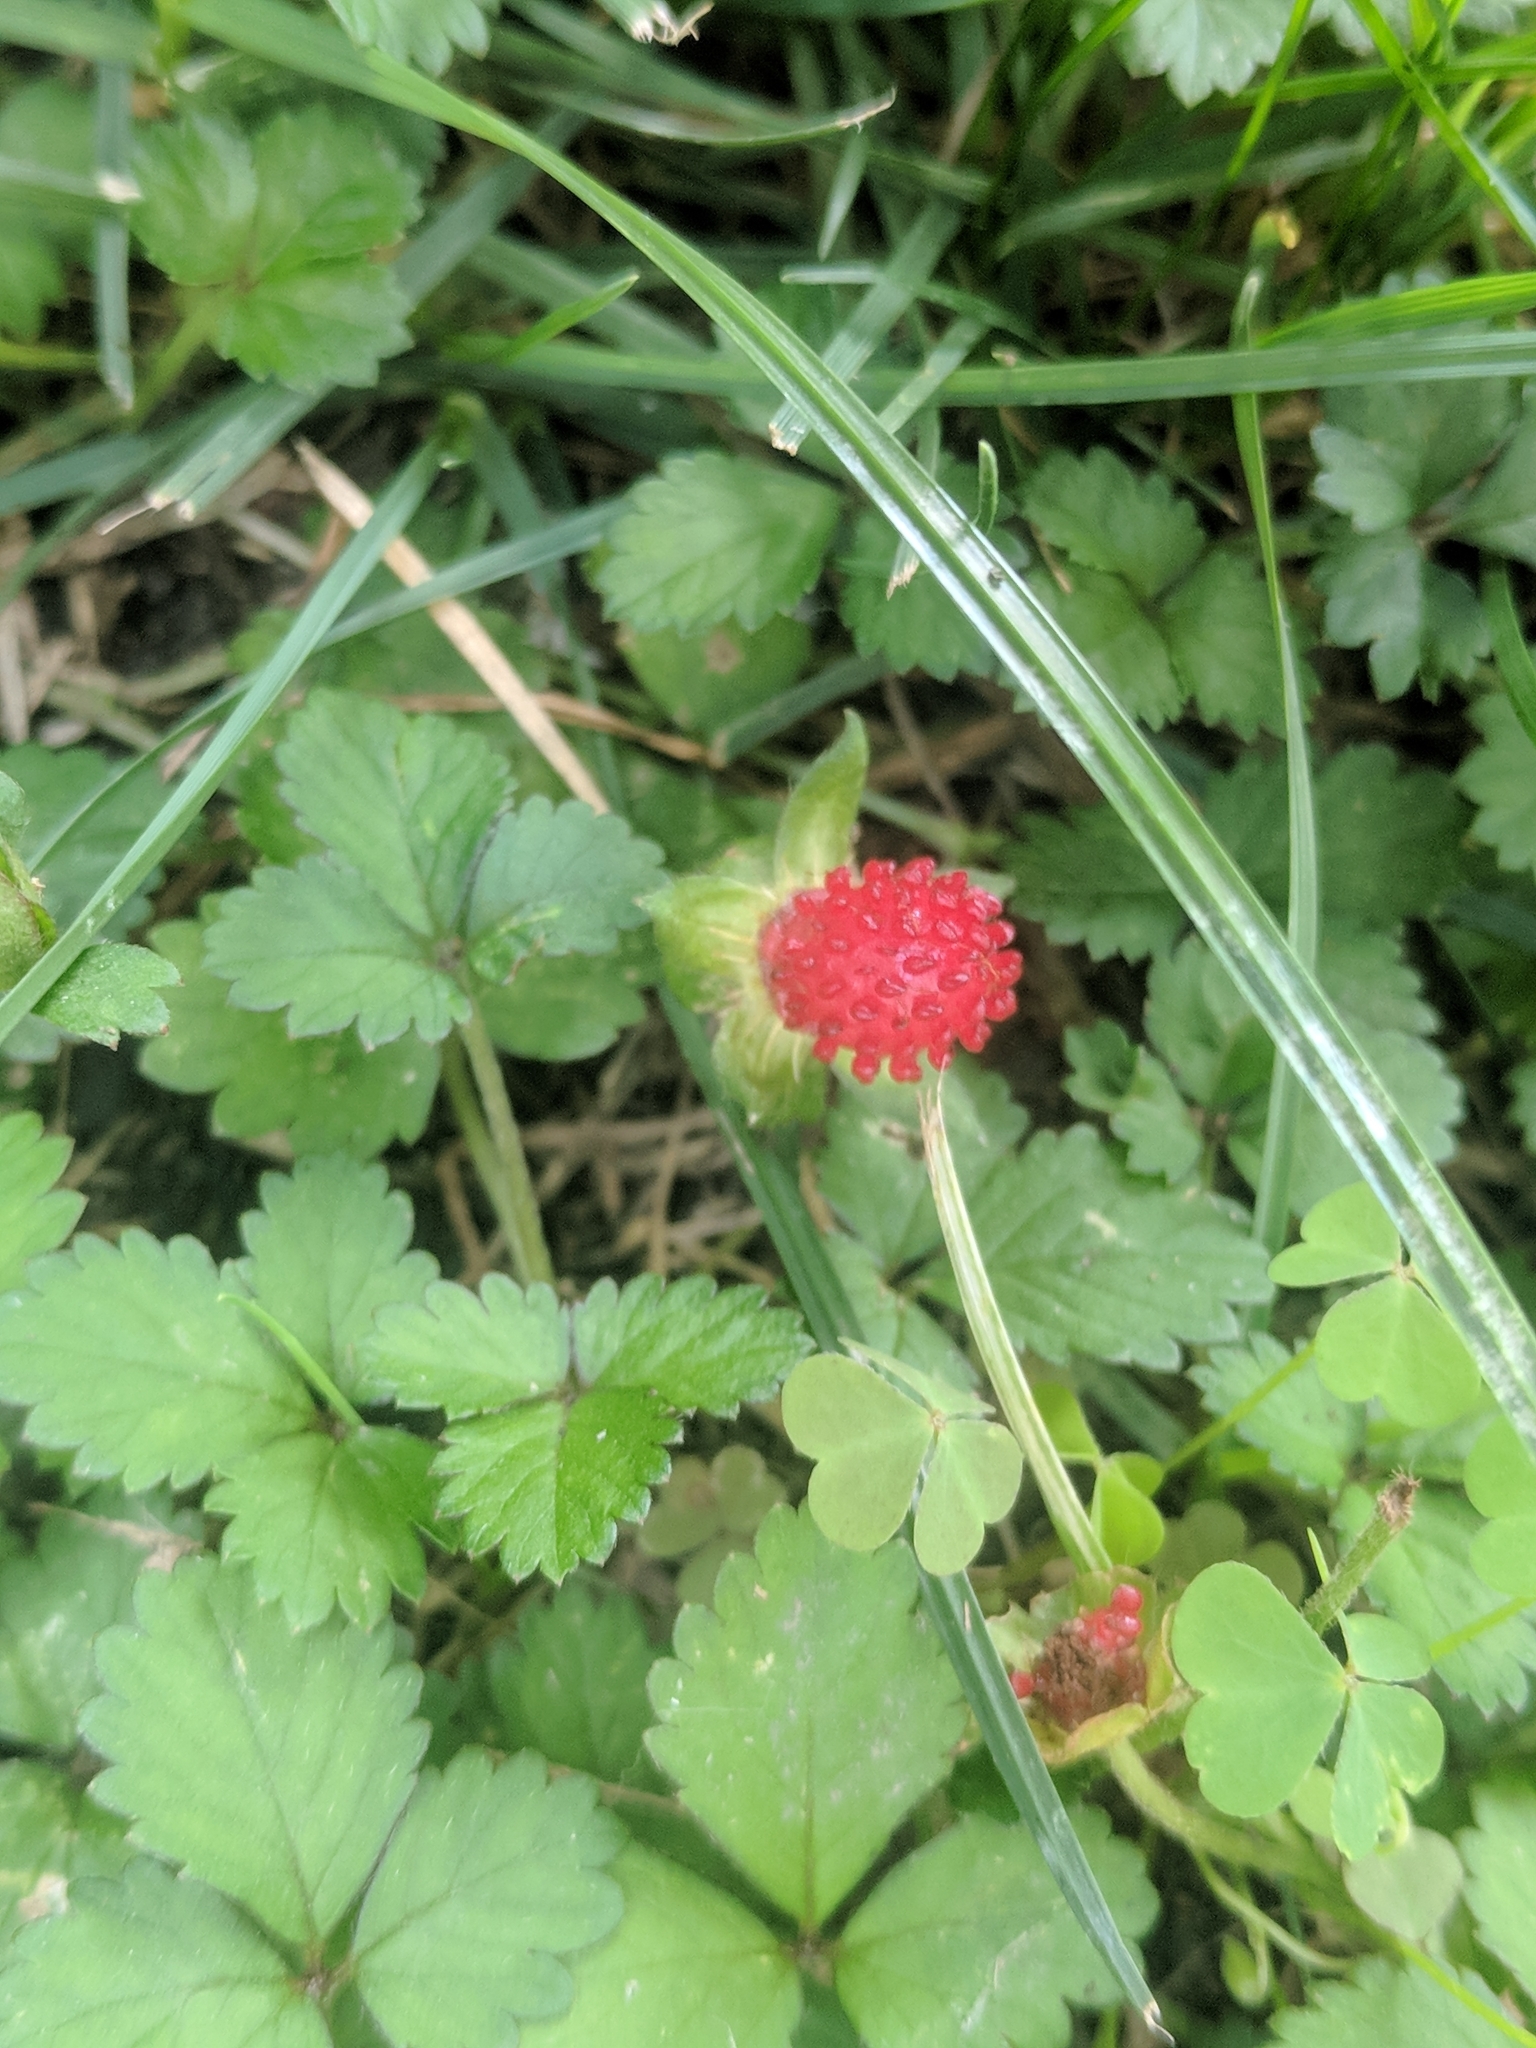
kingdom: Plantae
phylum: Tracheophyta
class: Magnoliopsida
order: Rosales
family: Rosaceae
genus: Potentilla
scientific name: Potentilla indica
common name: Yellow-flowered strawberry
